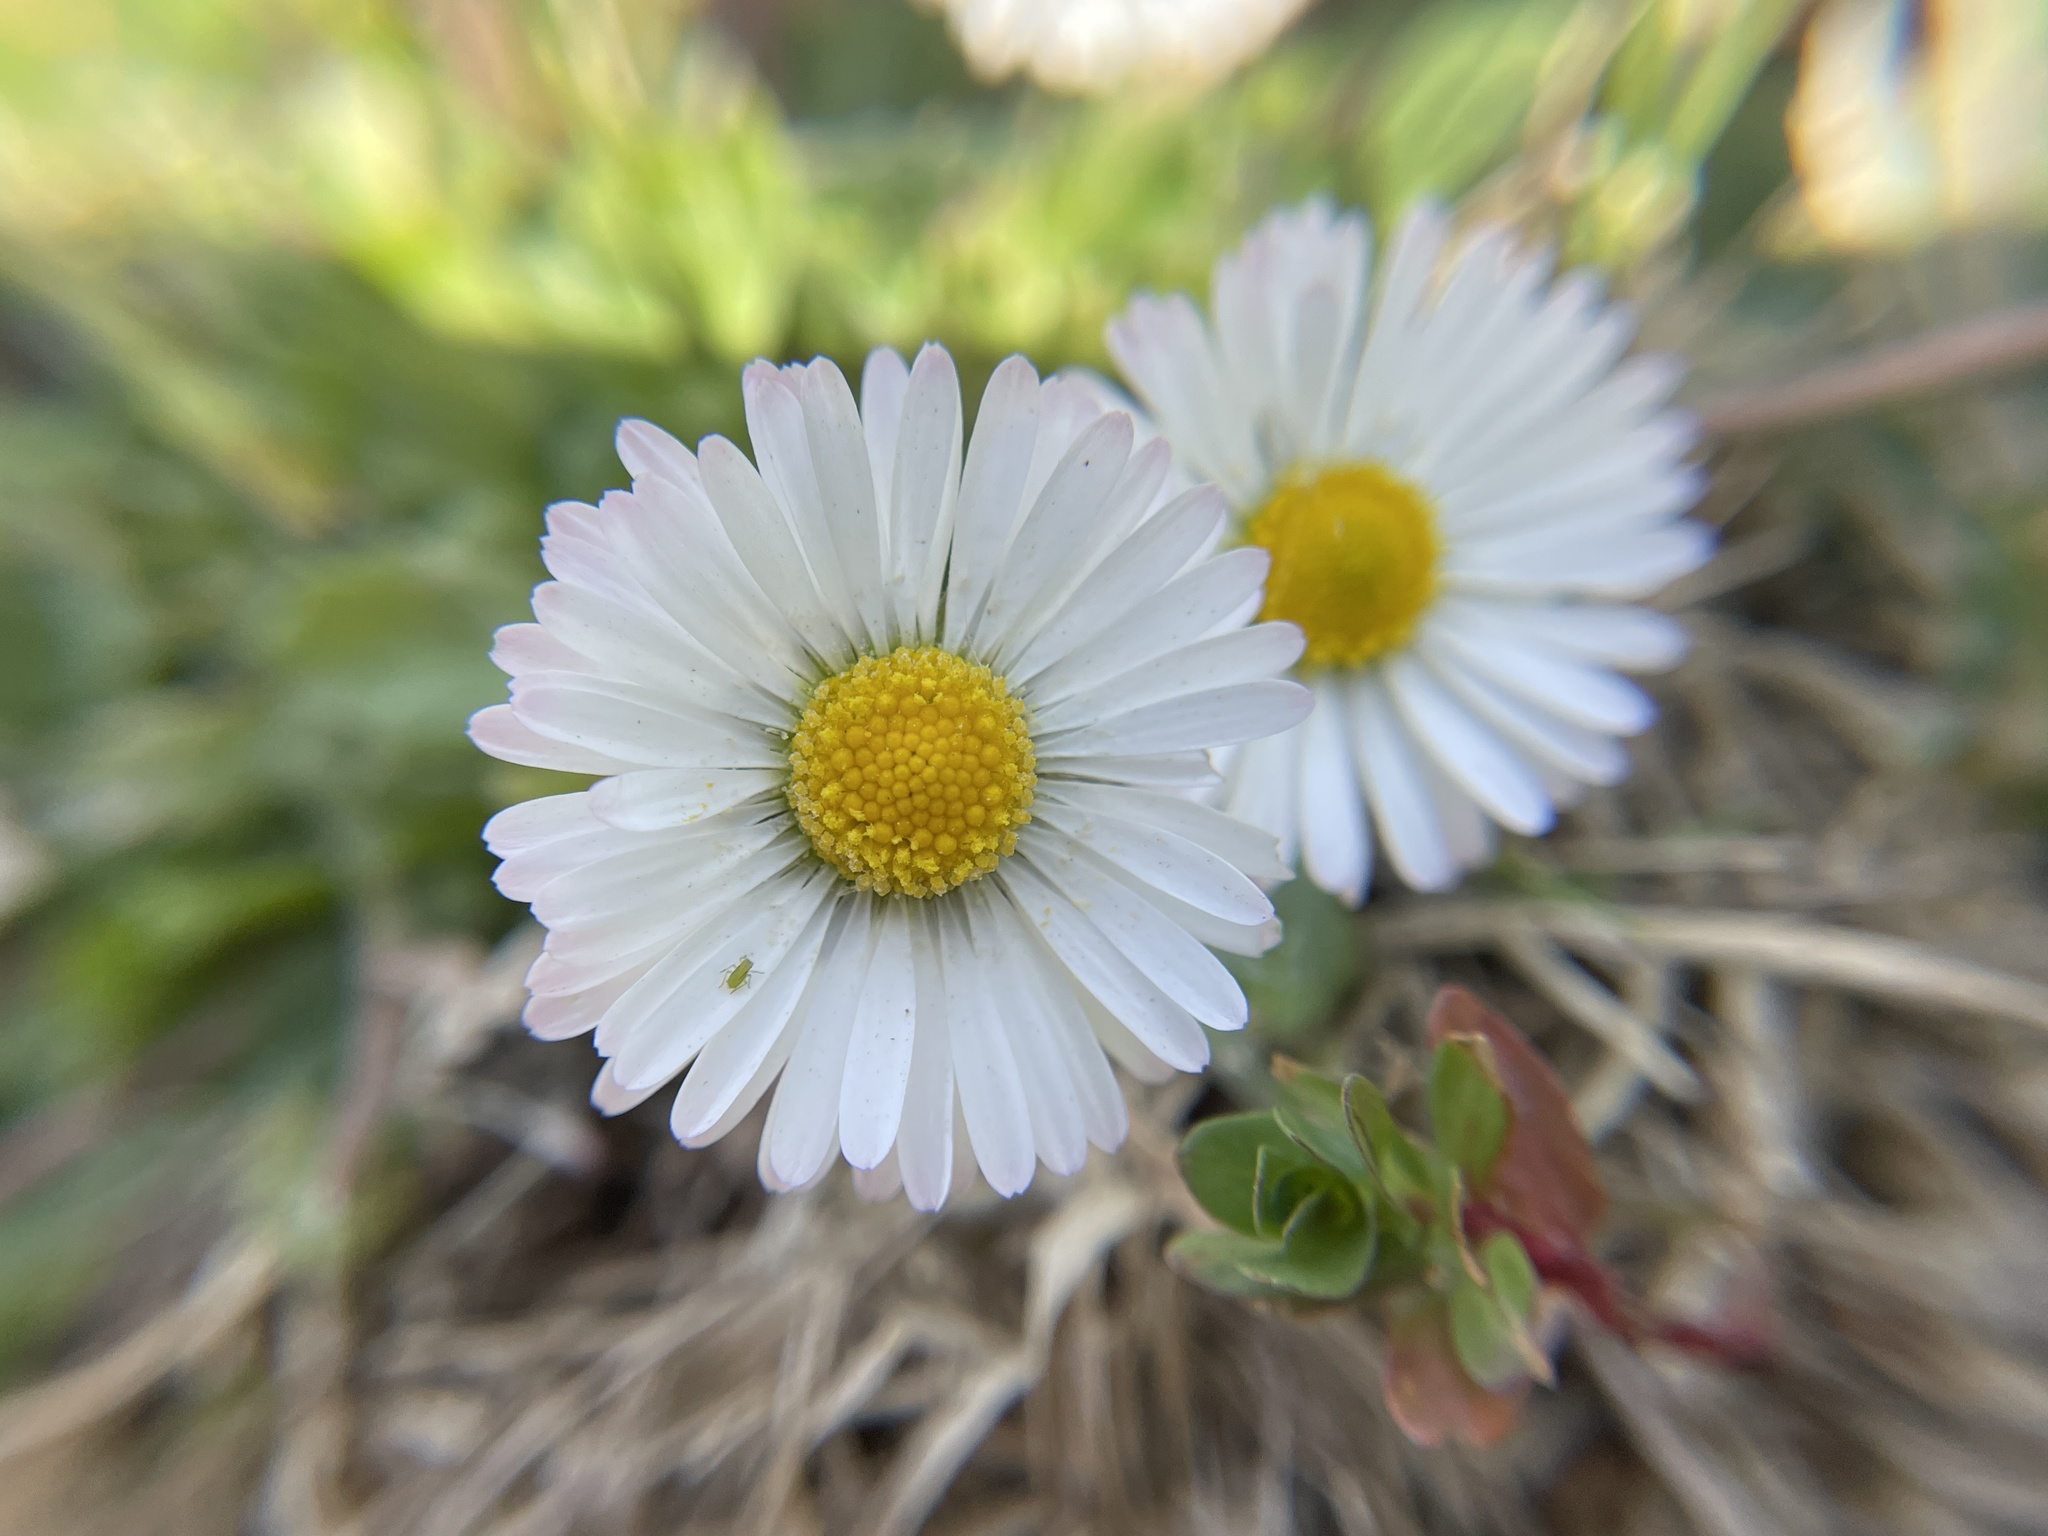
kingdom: Plantae
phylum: Tracheophyta
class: Magnoliopsida
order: Asterales
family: Asteraceae
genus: Bellis
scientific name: Bellis perennis
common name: Lawndaisy
